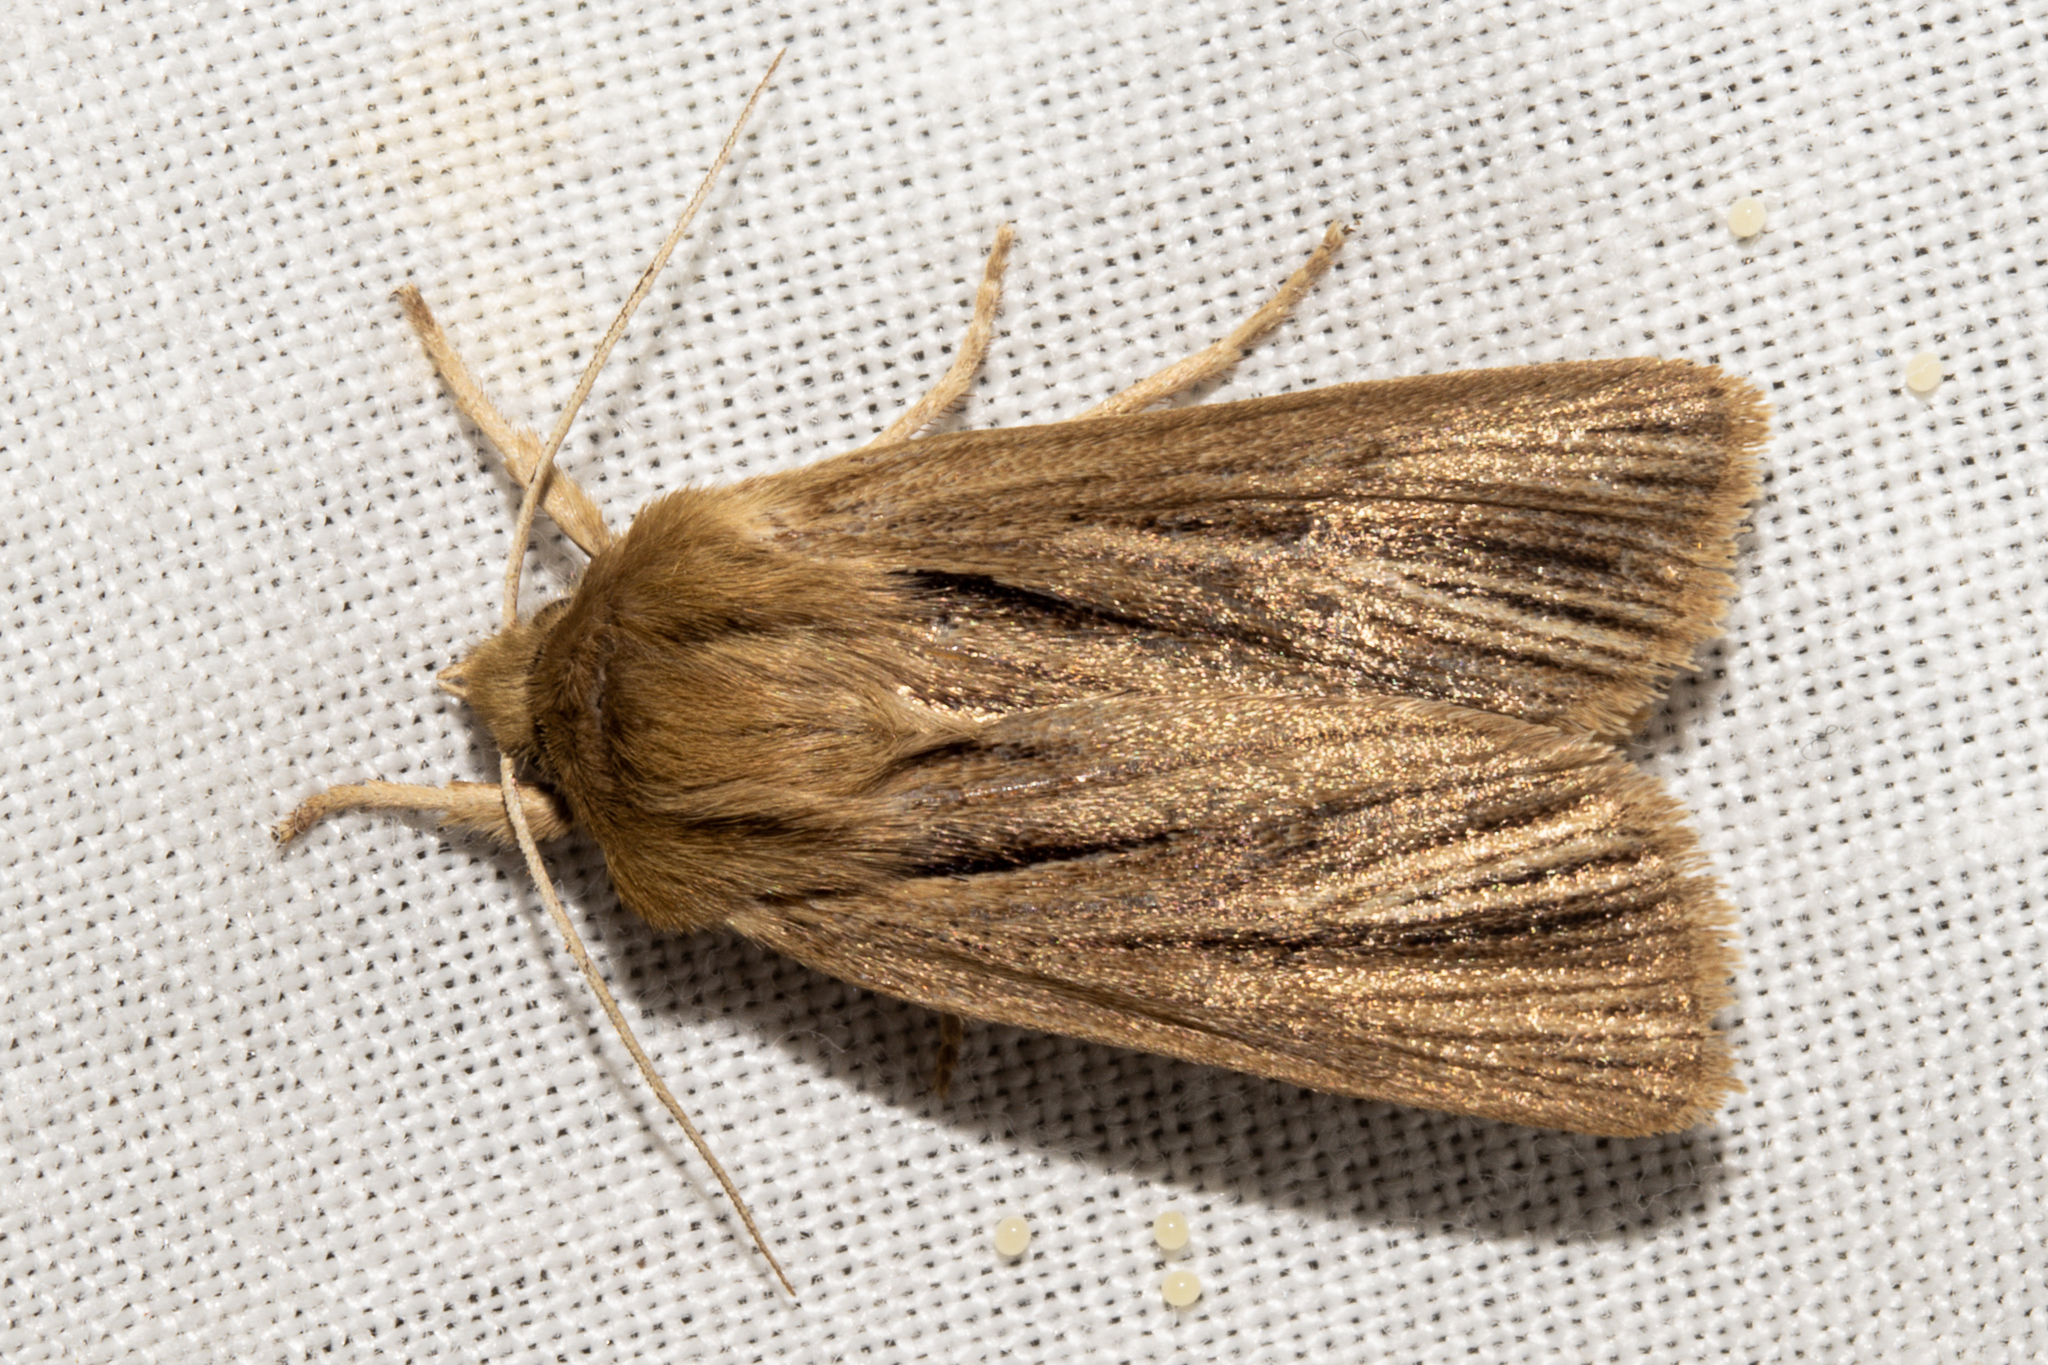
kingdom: Animalia
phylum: Arthropoda
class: Insecta
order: Lepidoptera
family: Noctuidae
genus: Ichneutica
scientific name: Ichneutica
